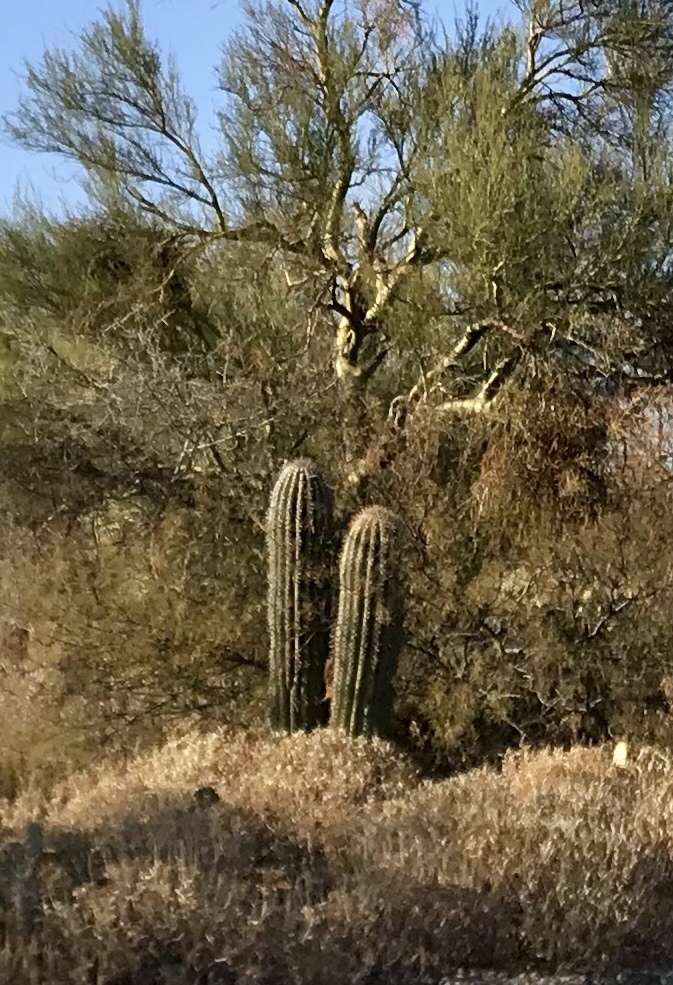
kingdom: Plantae
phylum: Tracheophyta
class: Magnoliopsida
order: Caryophyllales
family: Cactaceae
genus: Carnegiea
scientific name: Carnegiea gigantea
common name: Saguaro
